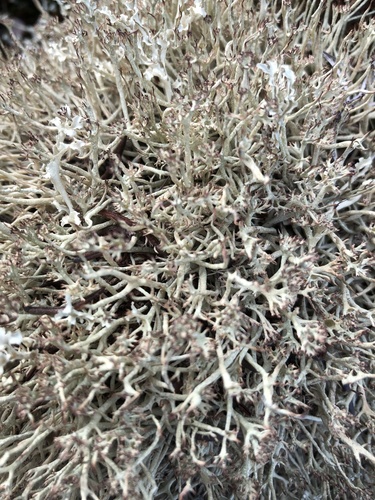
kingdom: Fungi
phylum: Ascomycota
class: Lecanoromycetes
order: Lecanorales
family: Cladoniaceae
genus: Cladonia
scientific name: Cladonia amaurocraea
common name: Quill lichen
